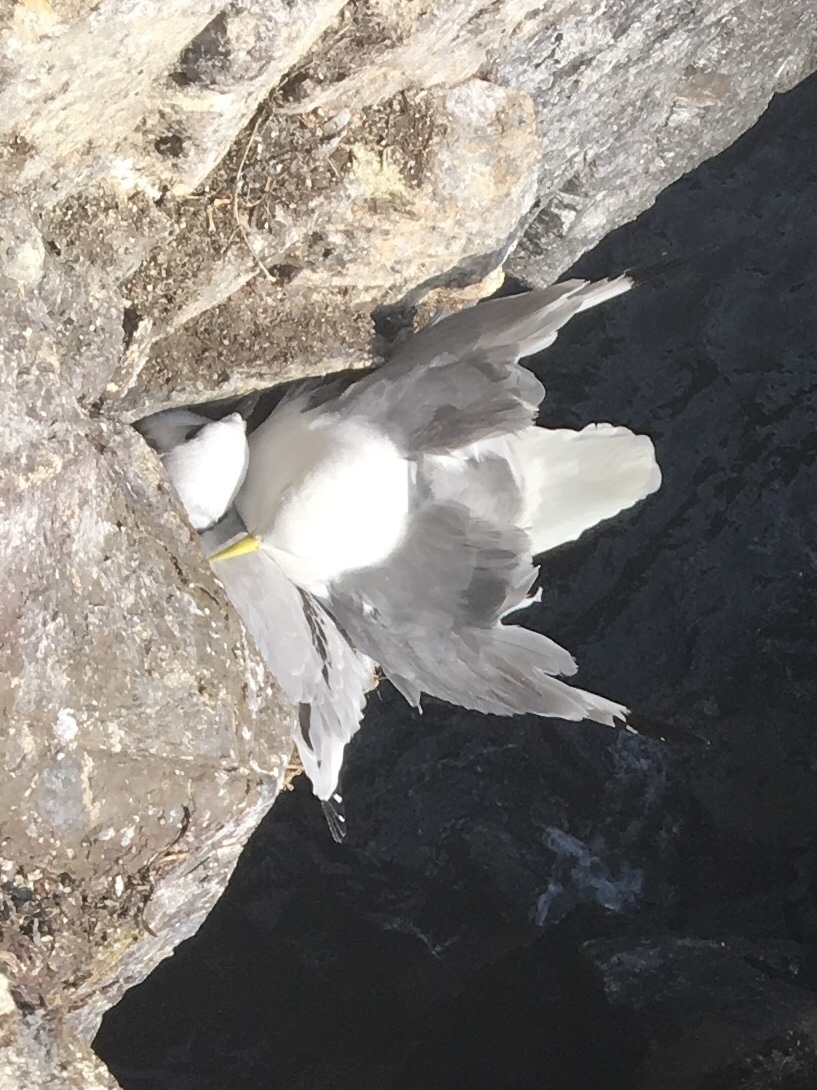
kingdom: Animalia
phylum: Chordata
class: Aves
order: Charadriiformes
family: Laridae
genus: Rissa
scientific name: Rissa tridactyla
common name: Black-legged kittiwake
